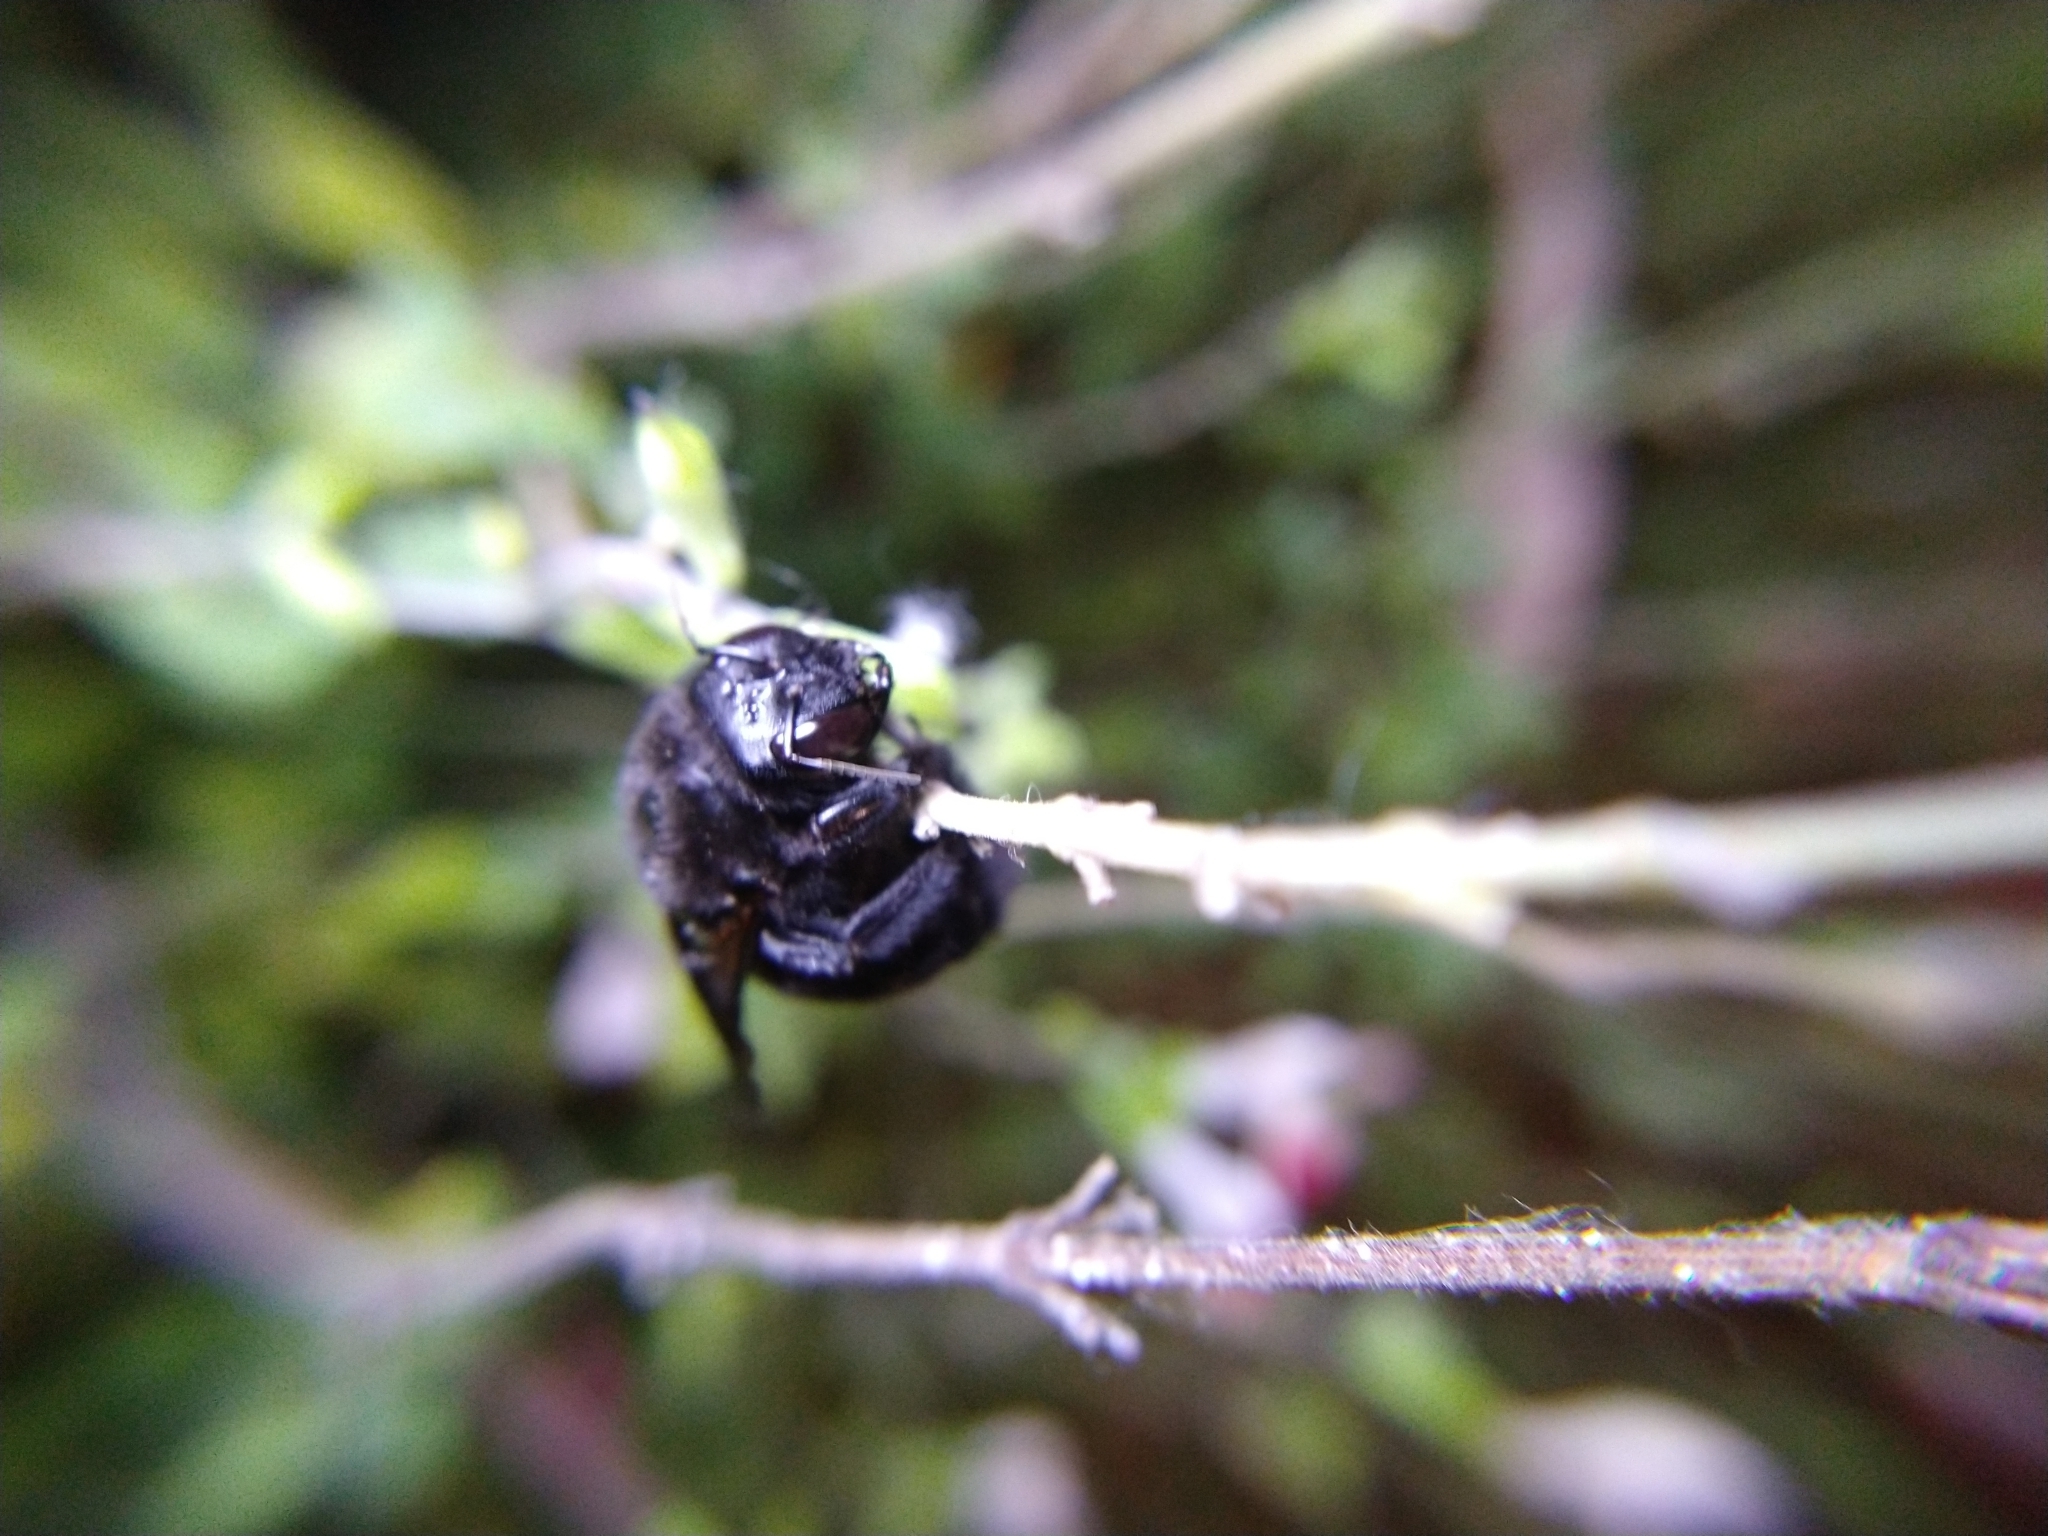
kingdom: Animalia
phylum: Arthropoda
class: Insecta
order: Hymenoptera
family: Apidae
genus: Xylocopa
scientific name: Xylocopa sonorina
